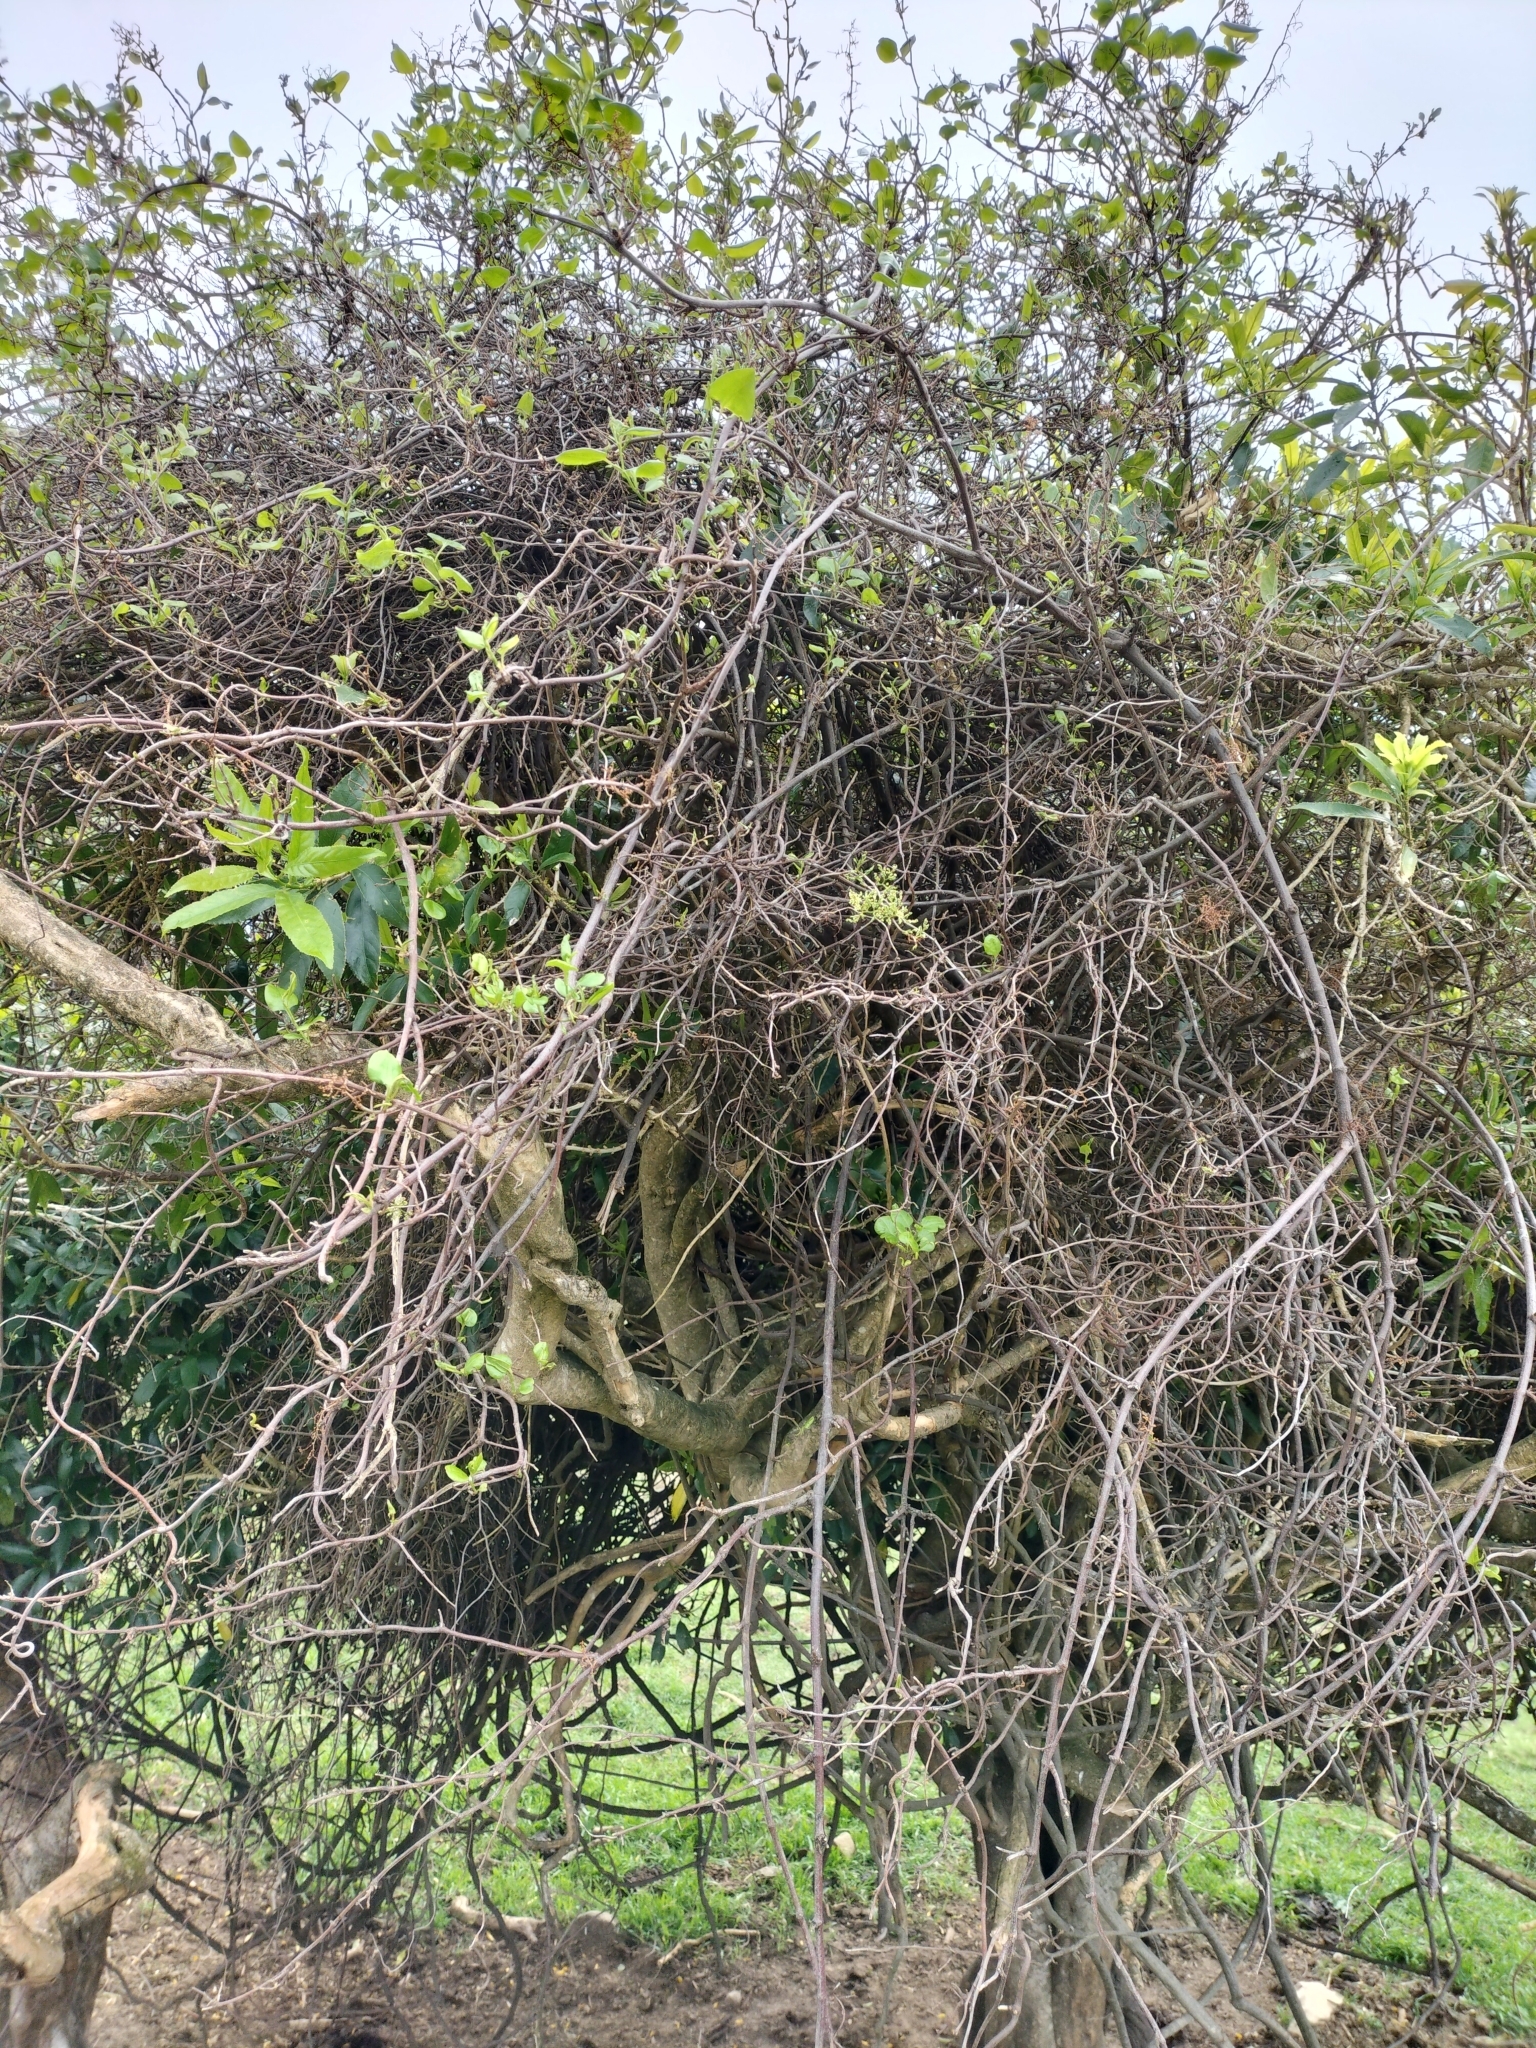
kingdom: Plantae
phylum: Tracheophyta
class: Magnoliopsida
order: Caryophyllales
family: Polygonaceae
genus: Muehlenbeckia
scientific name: Muehlenbeckia australis
